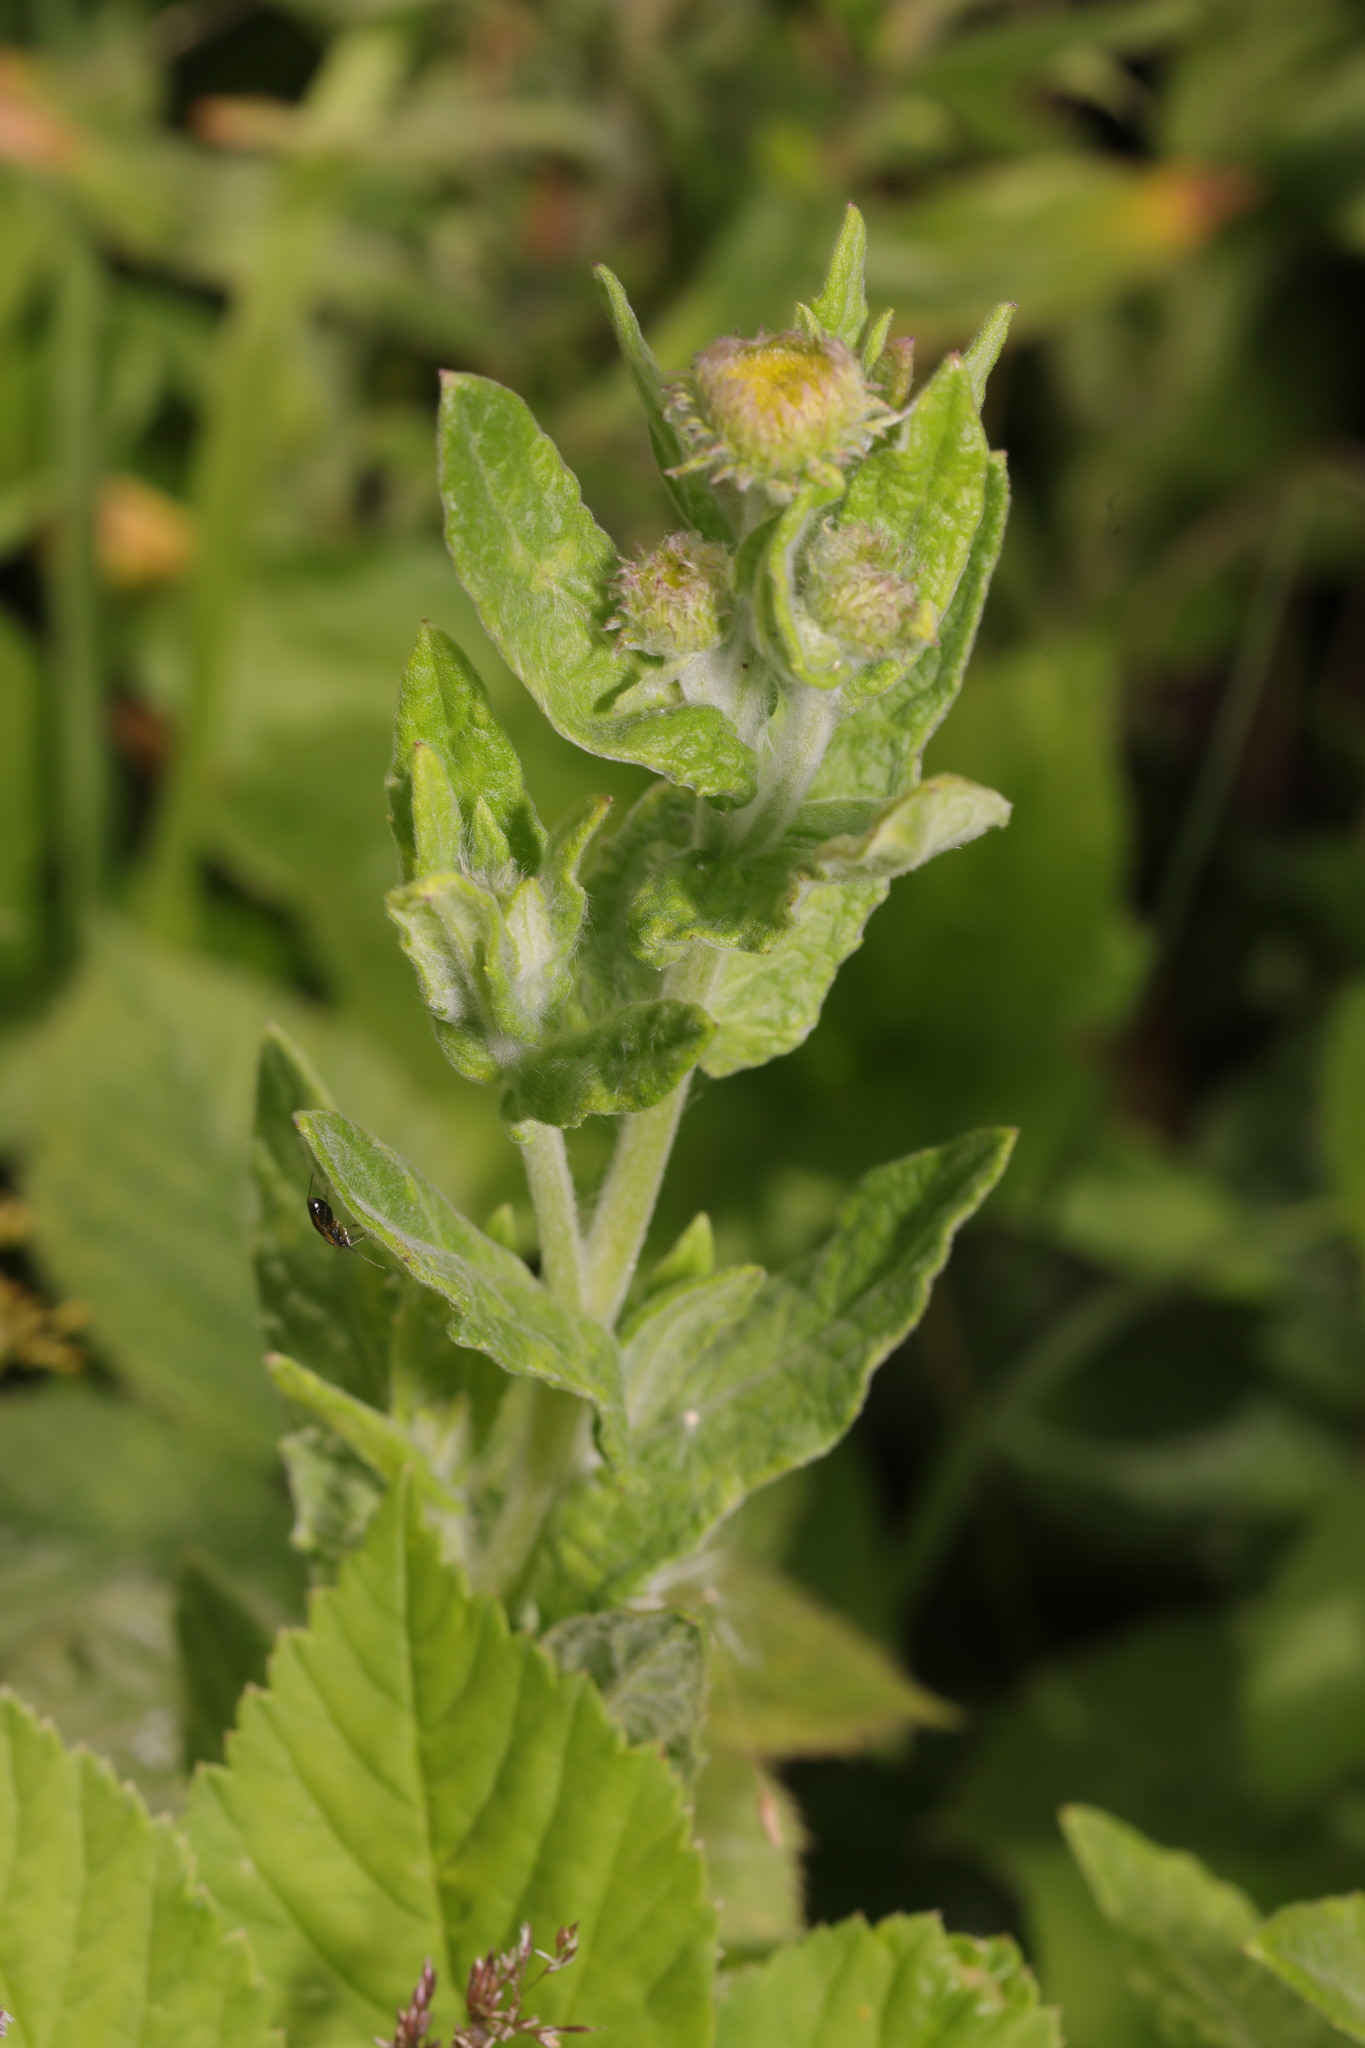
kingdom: Plantae
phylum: Tracheophyta
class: Magnoliopsida
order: Asterales
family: Asteraceae
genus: Pulicaria
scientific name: Pulicaria dysenterica
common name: Common fleabane
